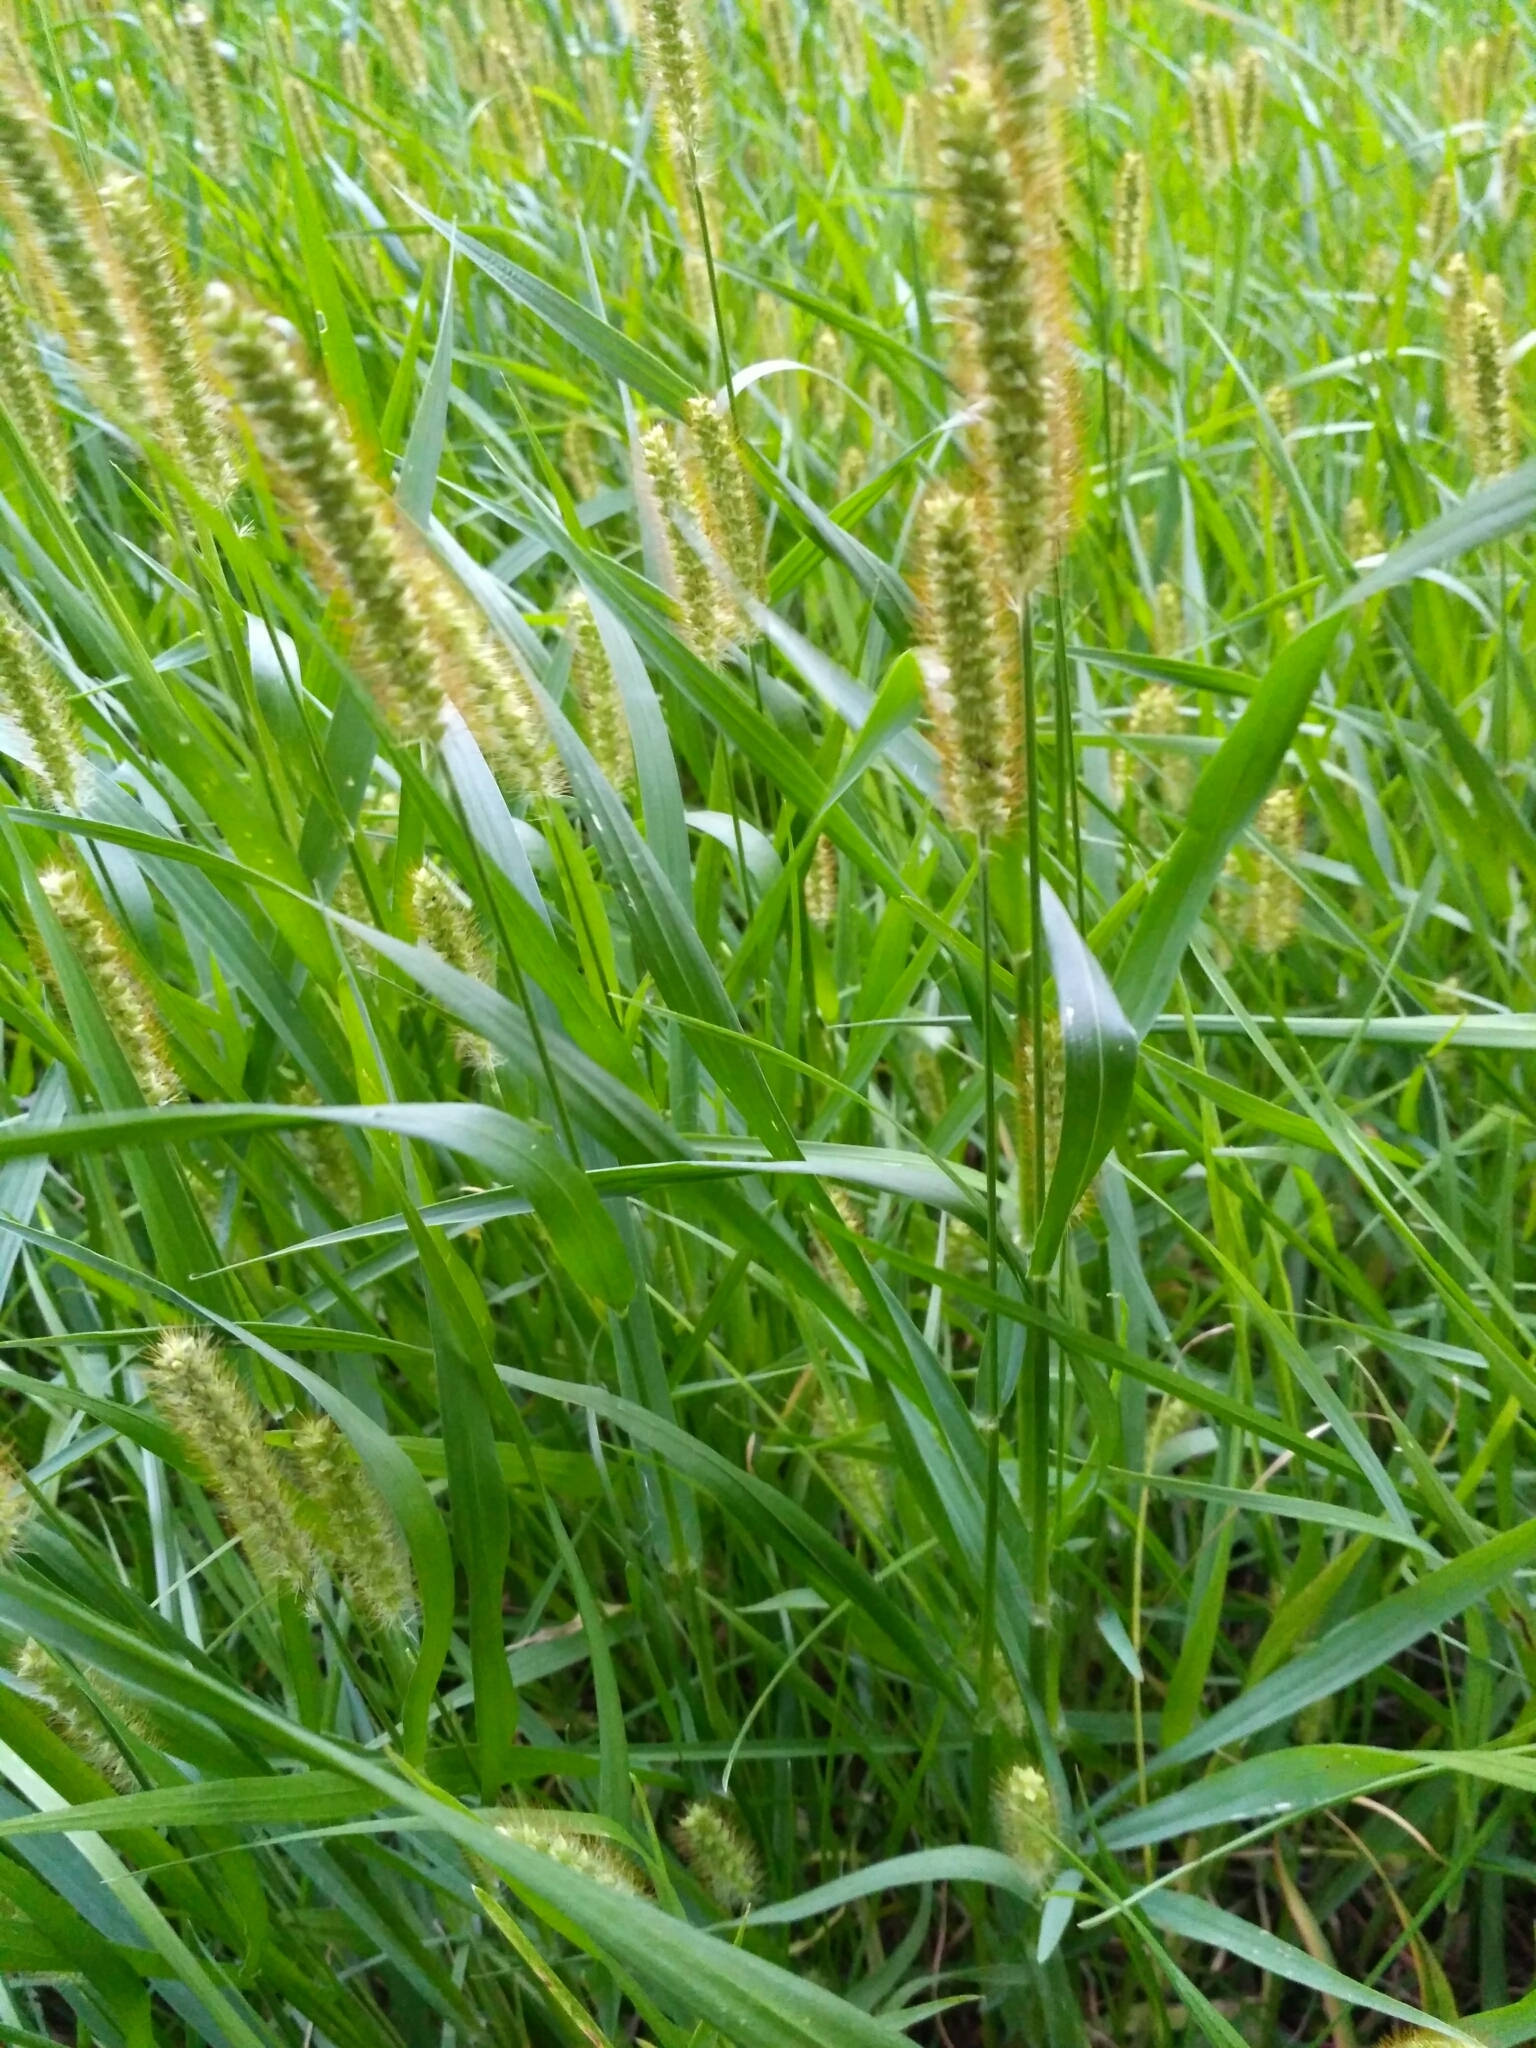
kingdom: Plantae
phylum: Tracheophyta
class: Liliopsida
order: Poales
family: Poaceae
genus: Setaria
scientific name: Setaria pumila
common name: Yellow bristle-grass
